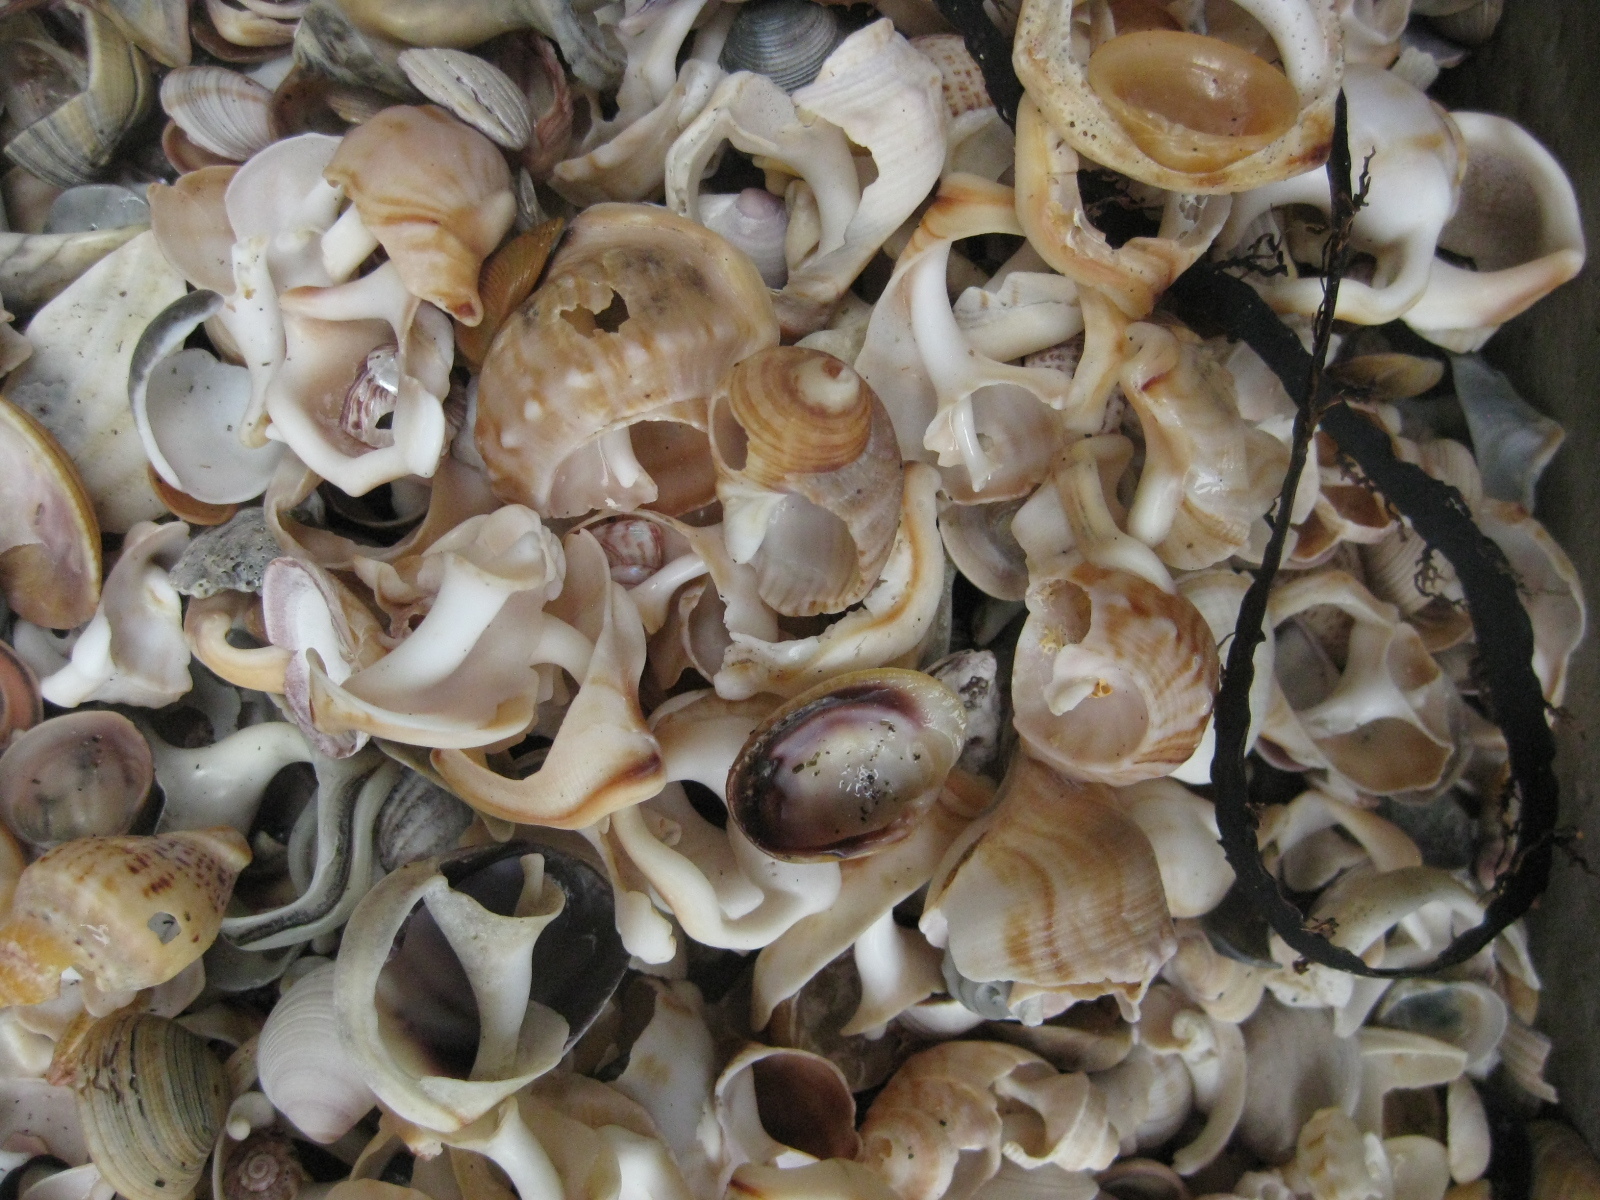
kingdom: Animalia
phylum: Mollusca
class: Gastropoda
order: Littorinimorpha
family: Struthiolariidae
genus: Struthiolaria
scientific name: Struthiolaria papulosa
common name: Large ostrich foot
